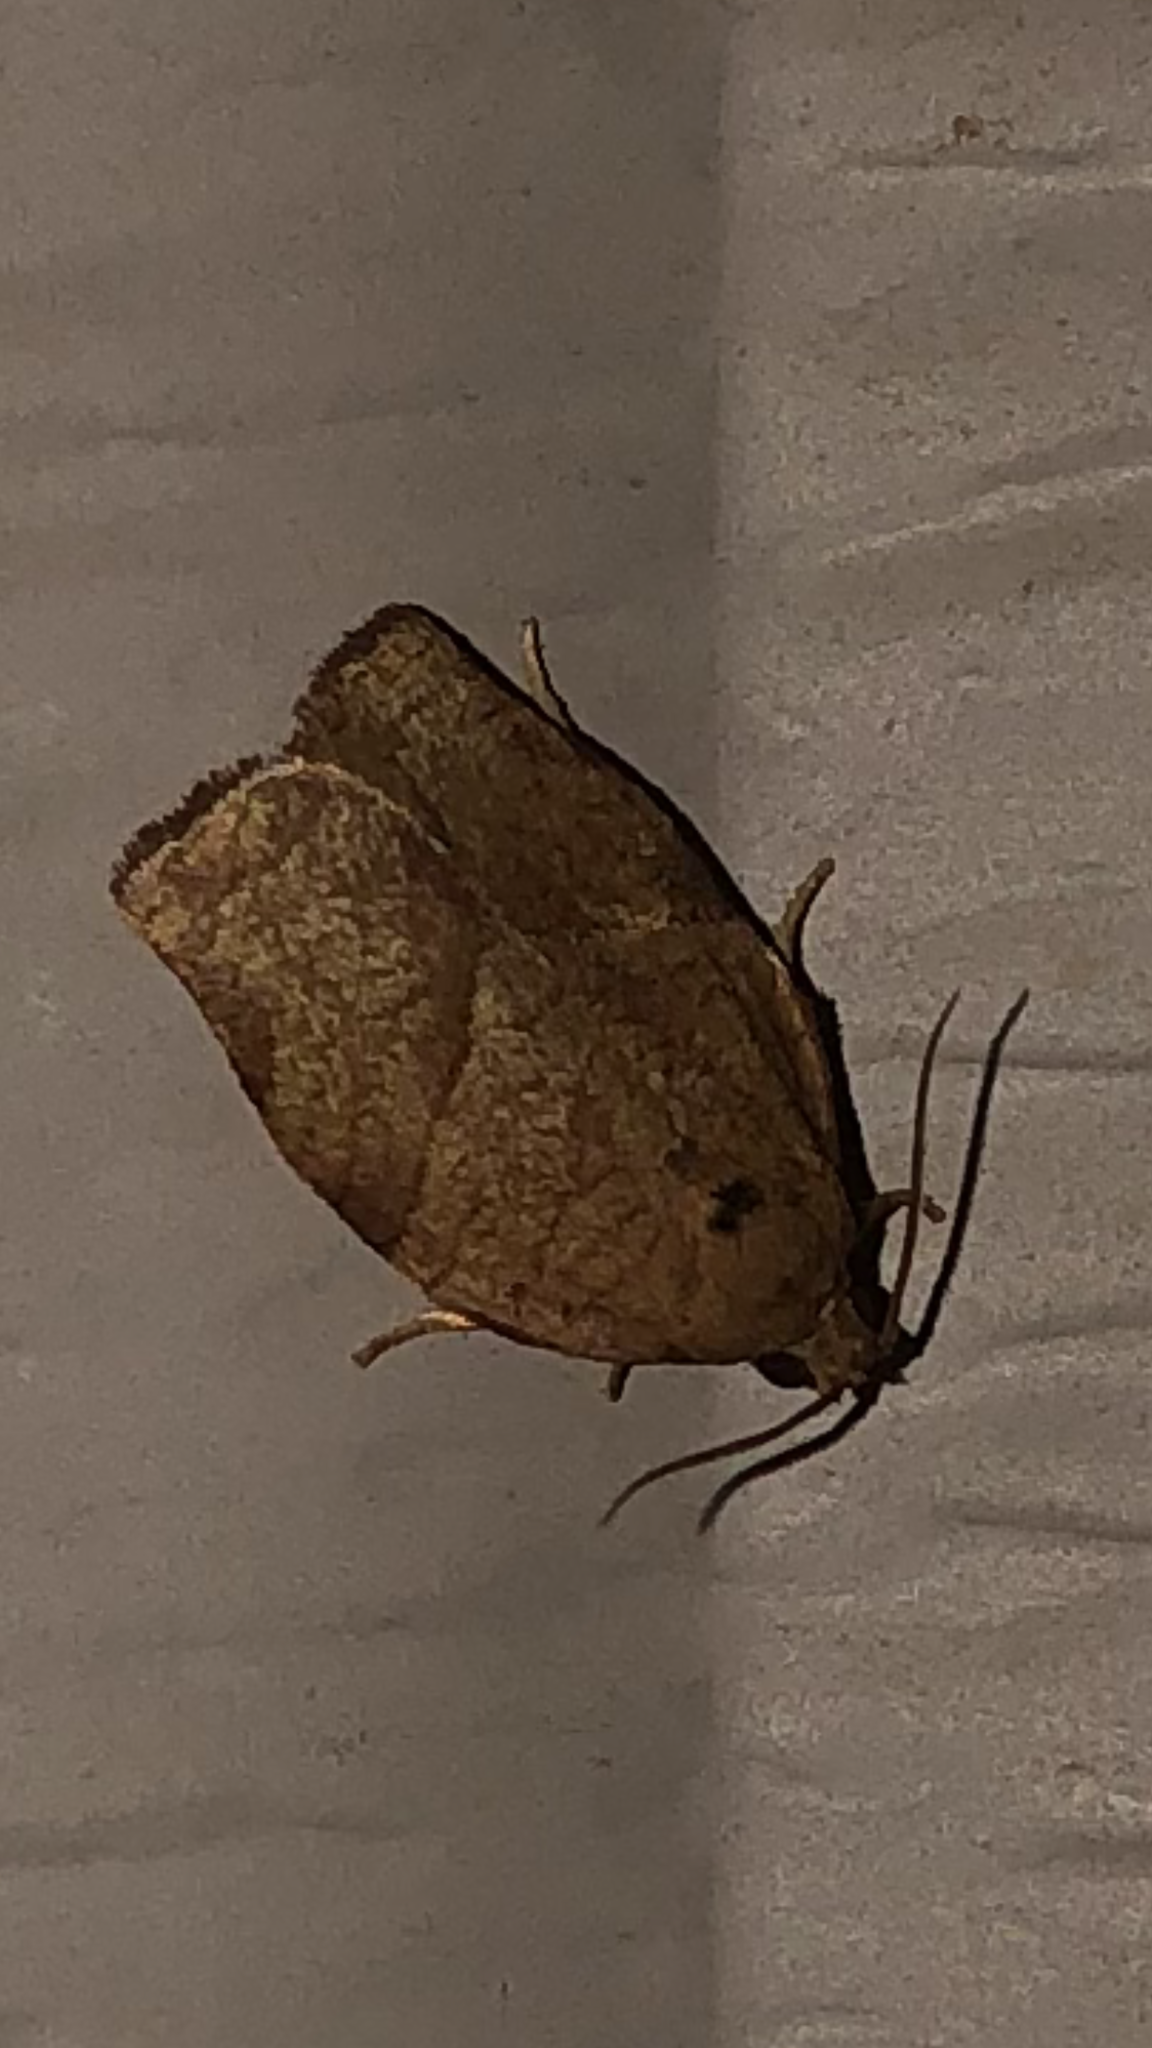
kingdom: Animalia
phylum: Arthropoda
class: Insecta
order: Lepidoptera
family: Tortricidae
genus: Choristoneura
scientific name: Choristoneura rosaceana
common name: Oblique-banded leafroller moth
